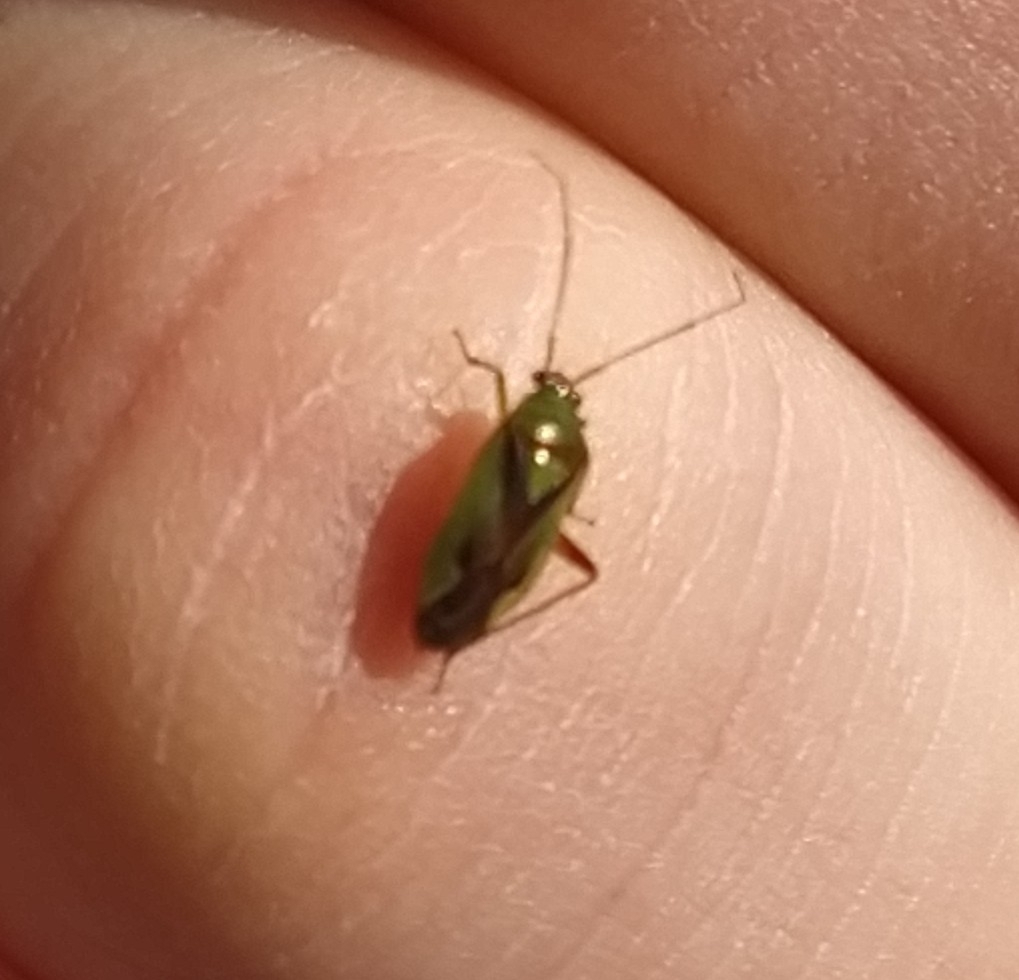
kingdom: Animalia
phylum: Arthropoda
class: Insecta
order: Hemiptera
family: Miridae
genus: Tuicoris
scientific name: Tuicoris lipurus
